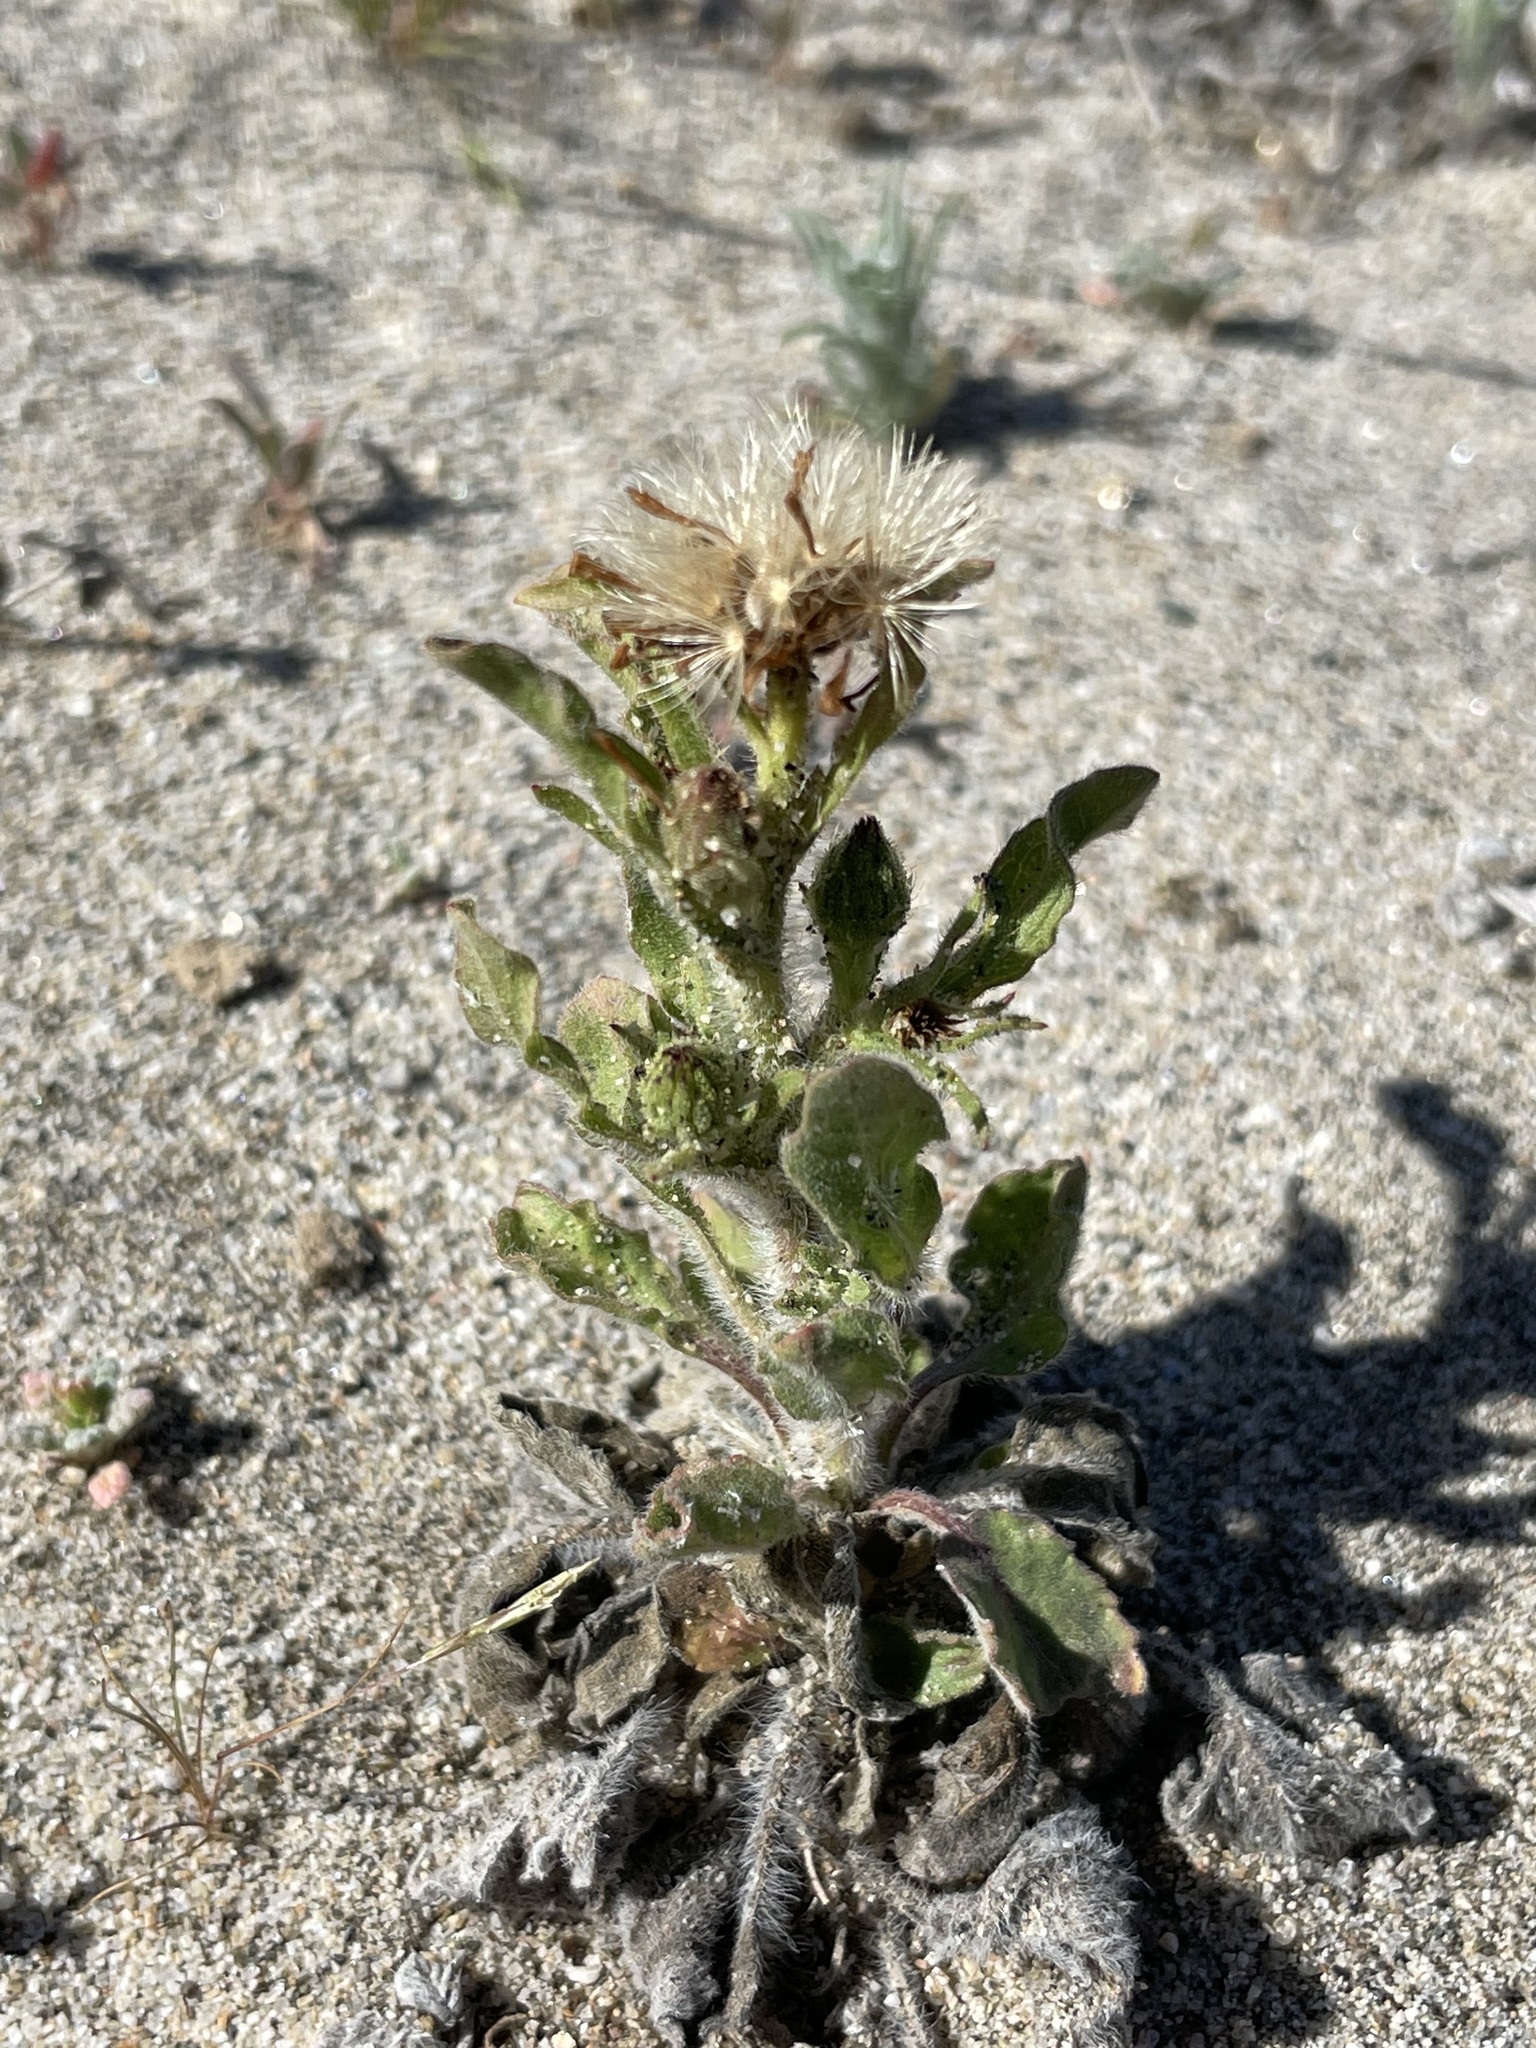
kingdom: Plantae
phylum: Tracheophyta
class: Magnoliopsida
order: Asterales
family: Asteraceae
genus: Heterotheca
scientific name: Heterotheca grandiflora
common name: Telegraphweed
